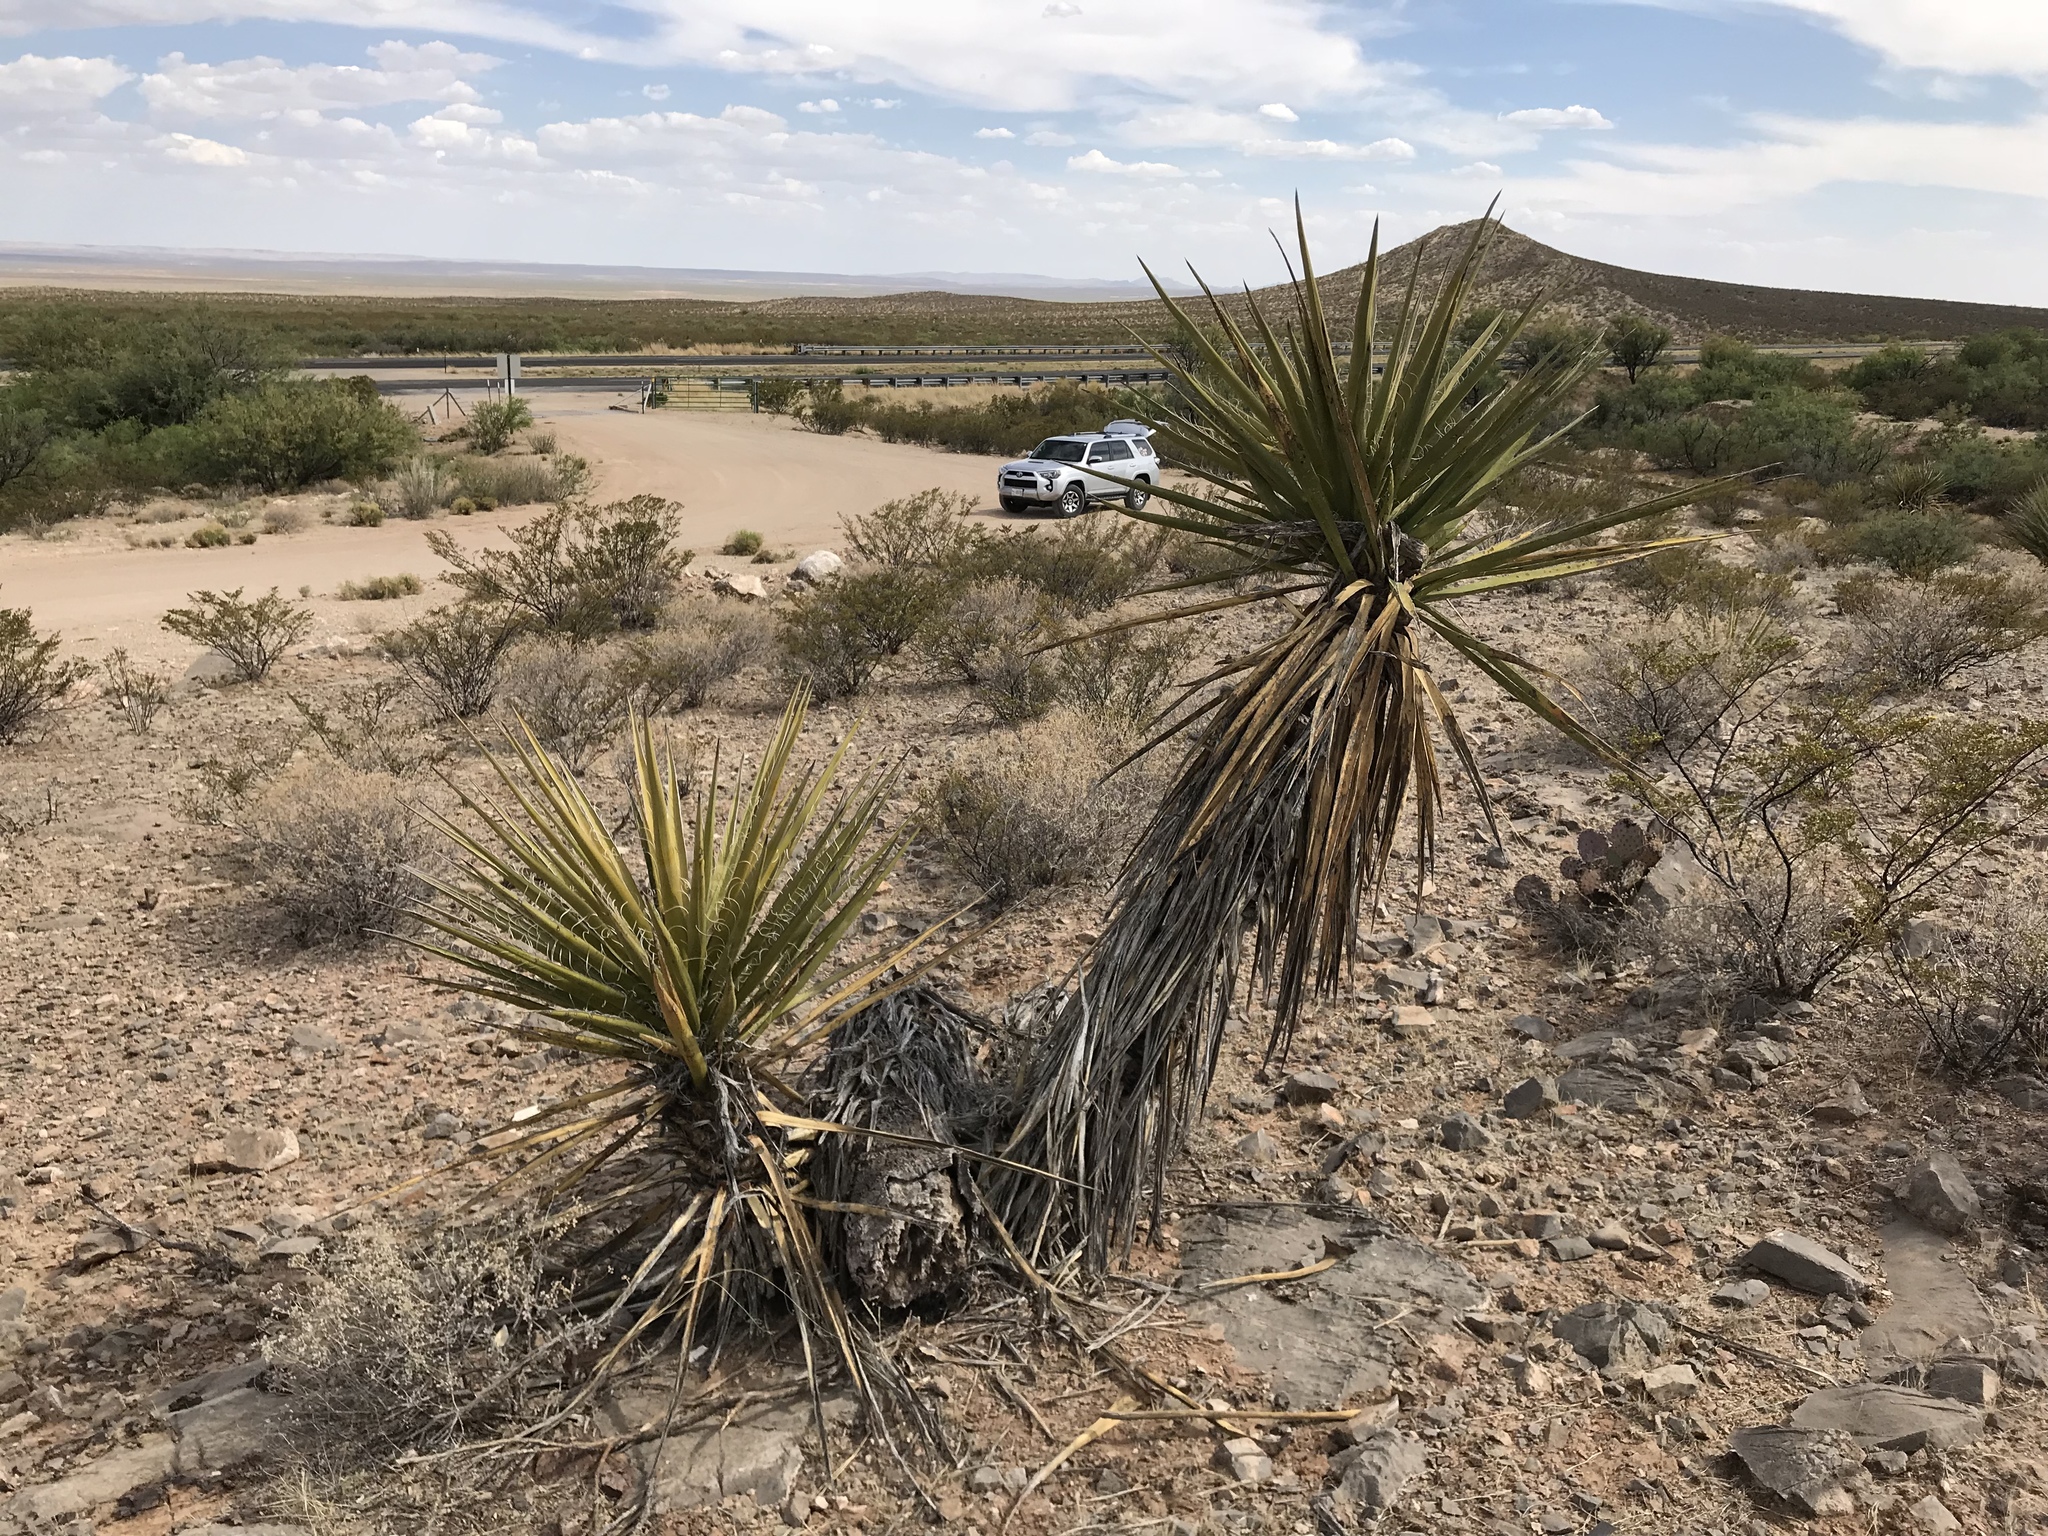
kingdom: Plantae
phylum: Tracheophyta
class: Liliopsida
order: Asparagales
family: Asparagaceae
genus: Yucca
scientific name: Yucca treculiana
